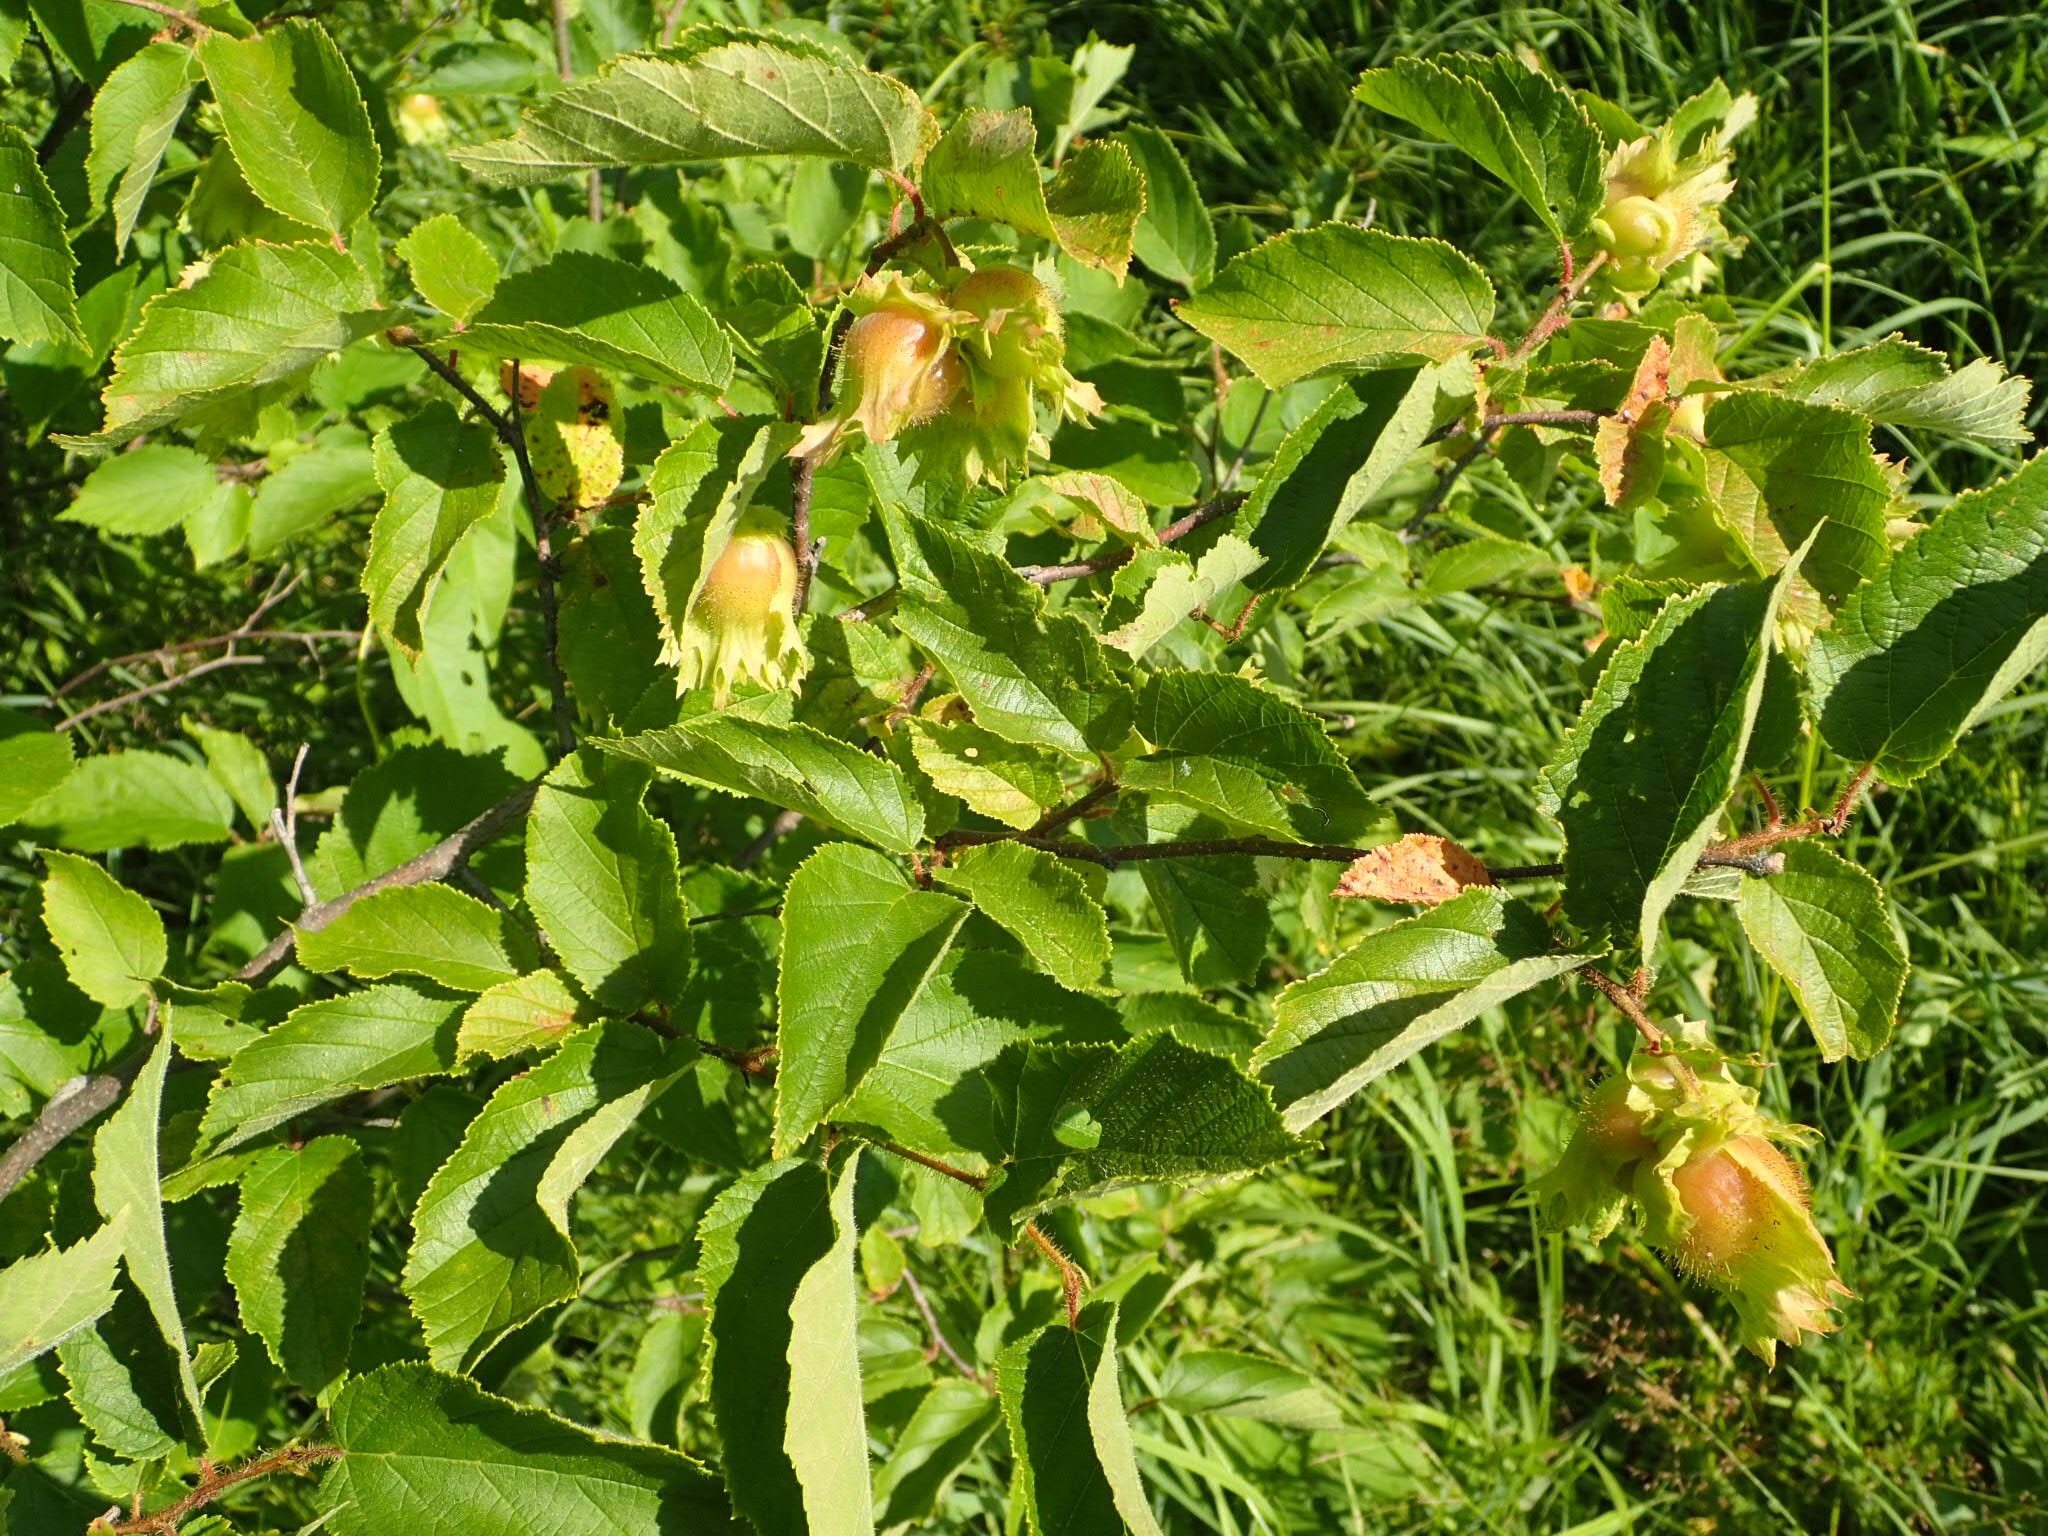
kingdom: Plantae
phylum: Tracheophyta
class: Magnoliopsida
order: Fagales
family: Betulaceae
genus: Corylus
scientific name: Corylus americana
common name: American hazel
